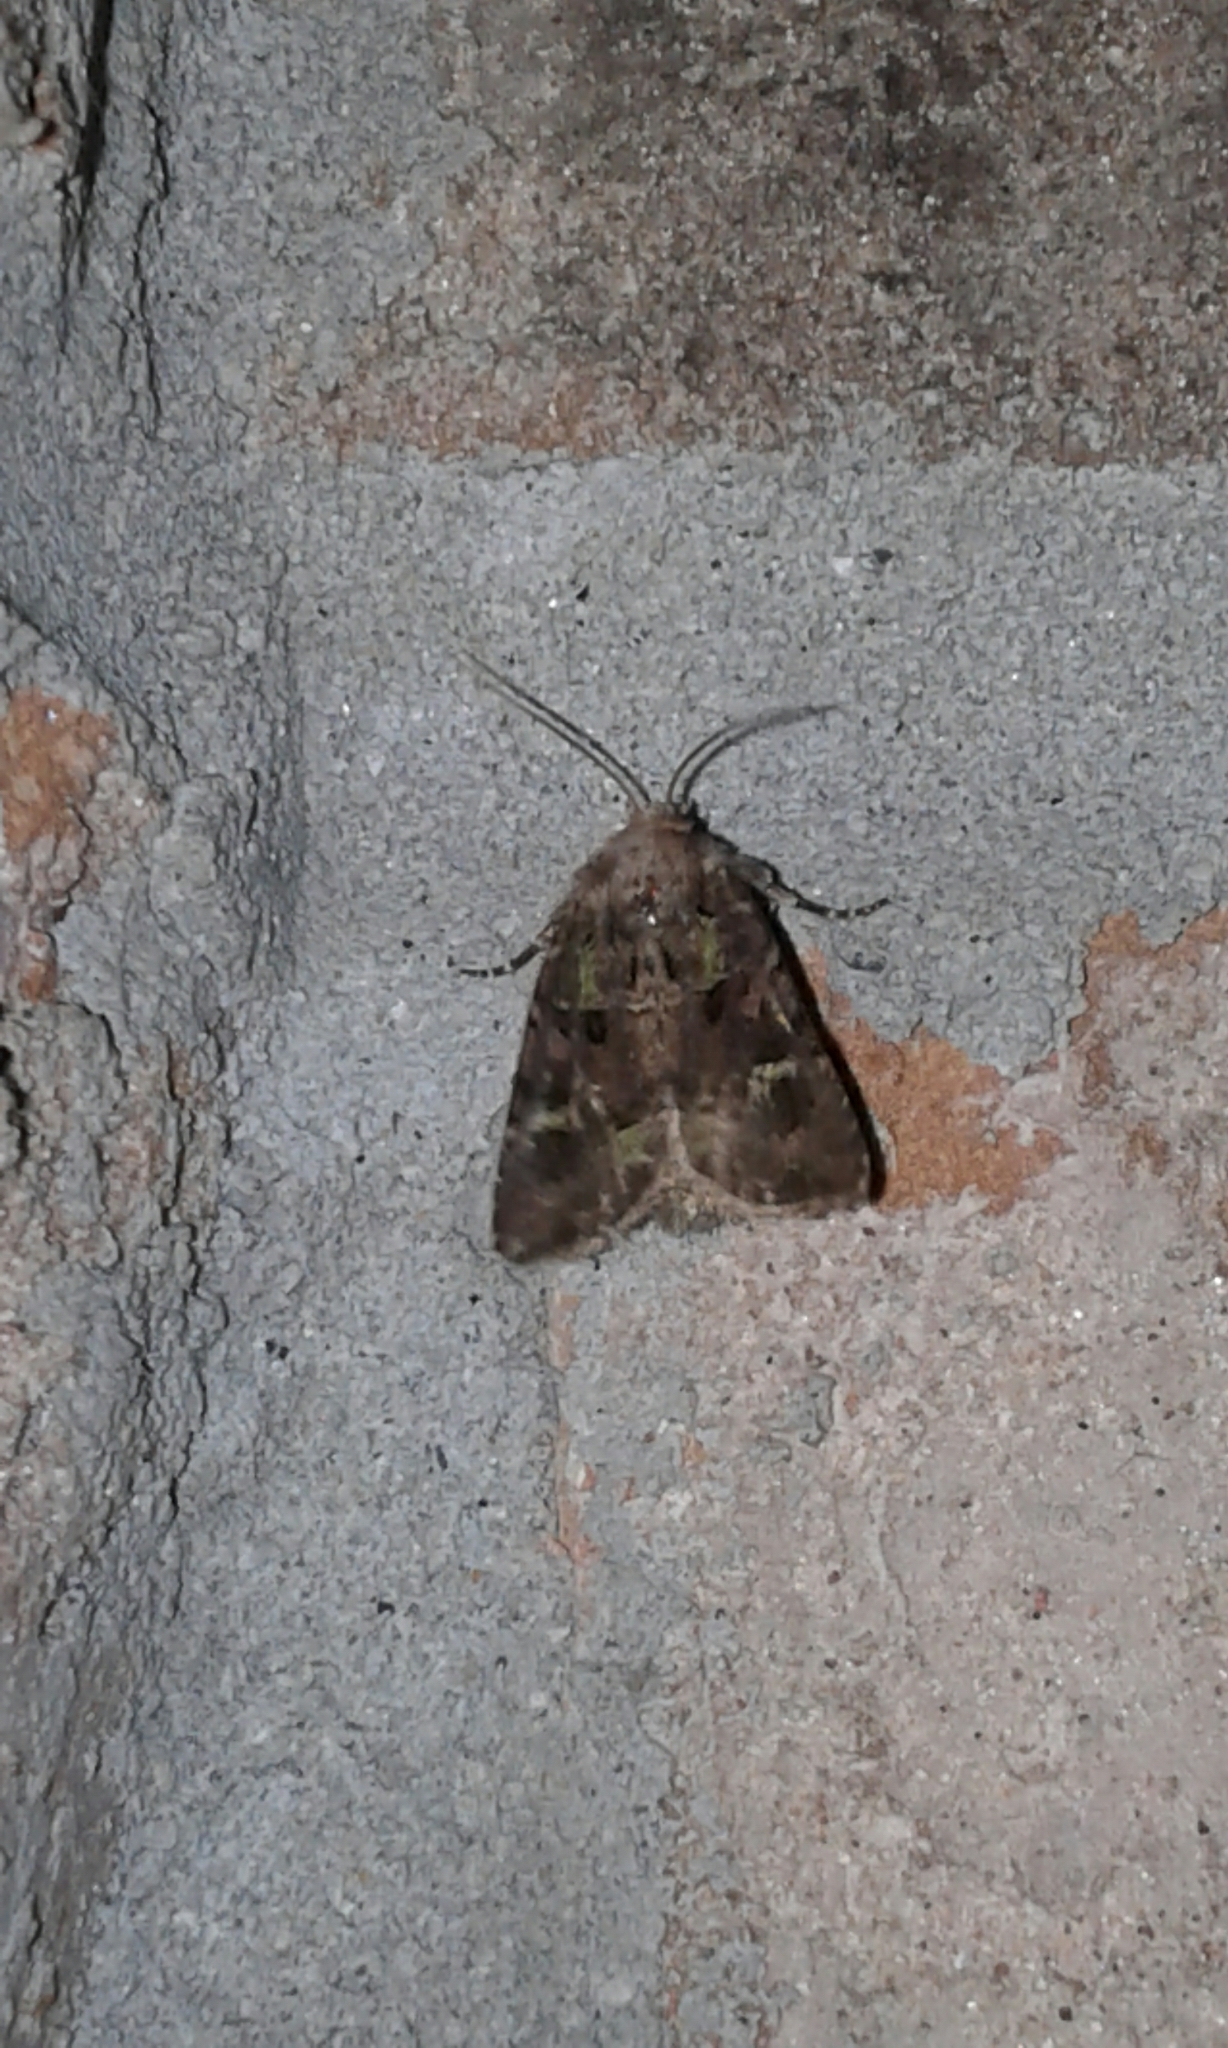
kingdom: Animalia
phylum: Arthropoda
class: Insecta
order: Lepidoptera
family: Noctuidae
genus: Lacinipolia
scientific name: Lacinipolia renigera
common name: Kidney-spotted minor
